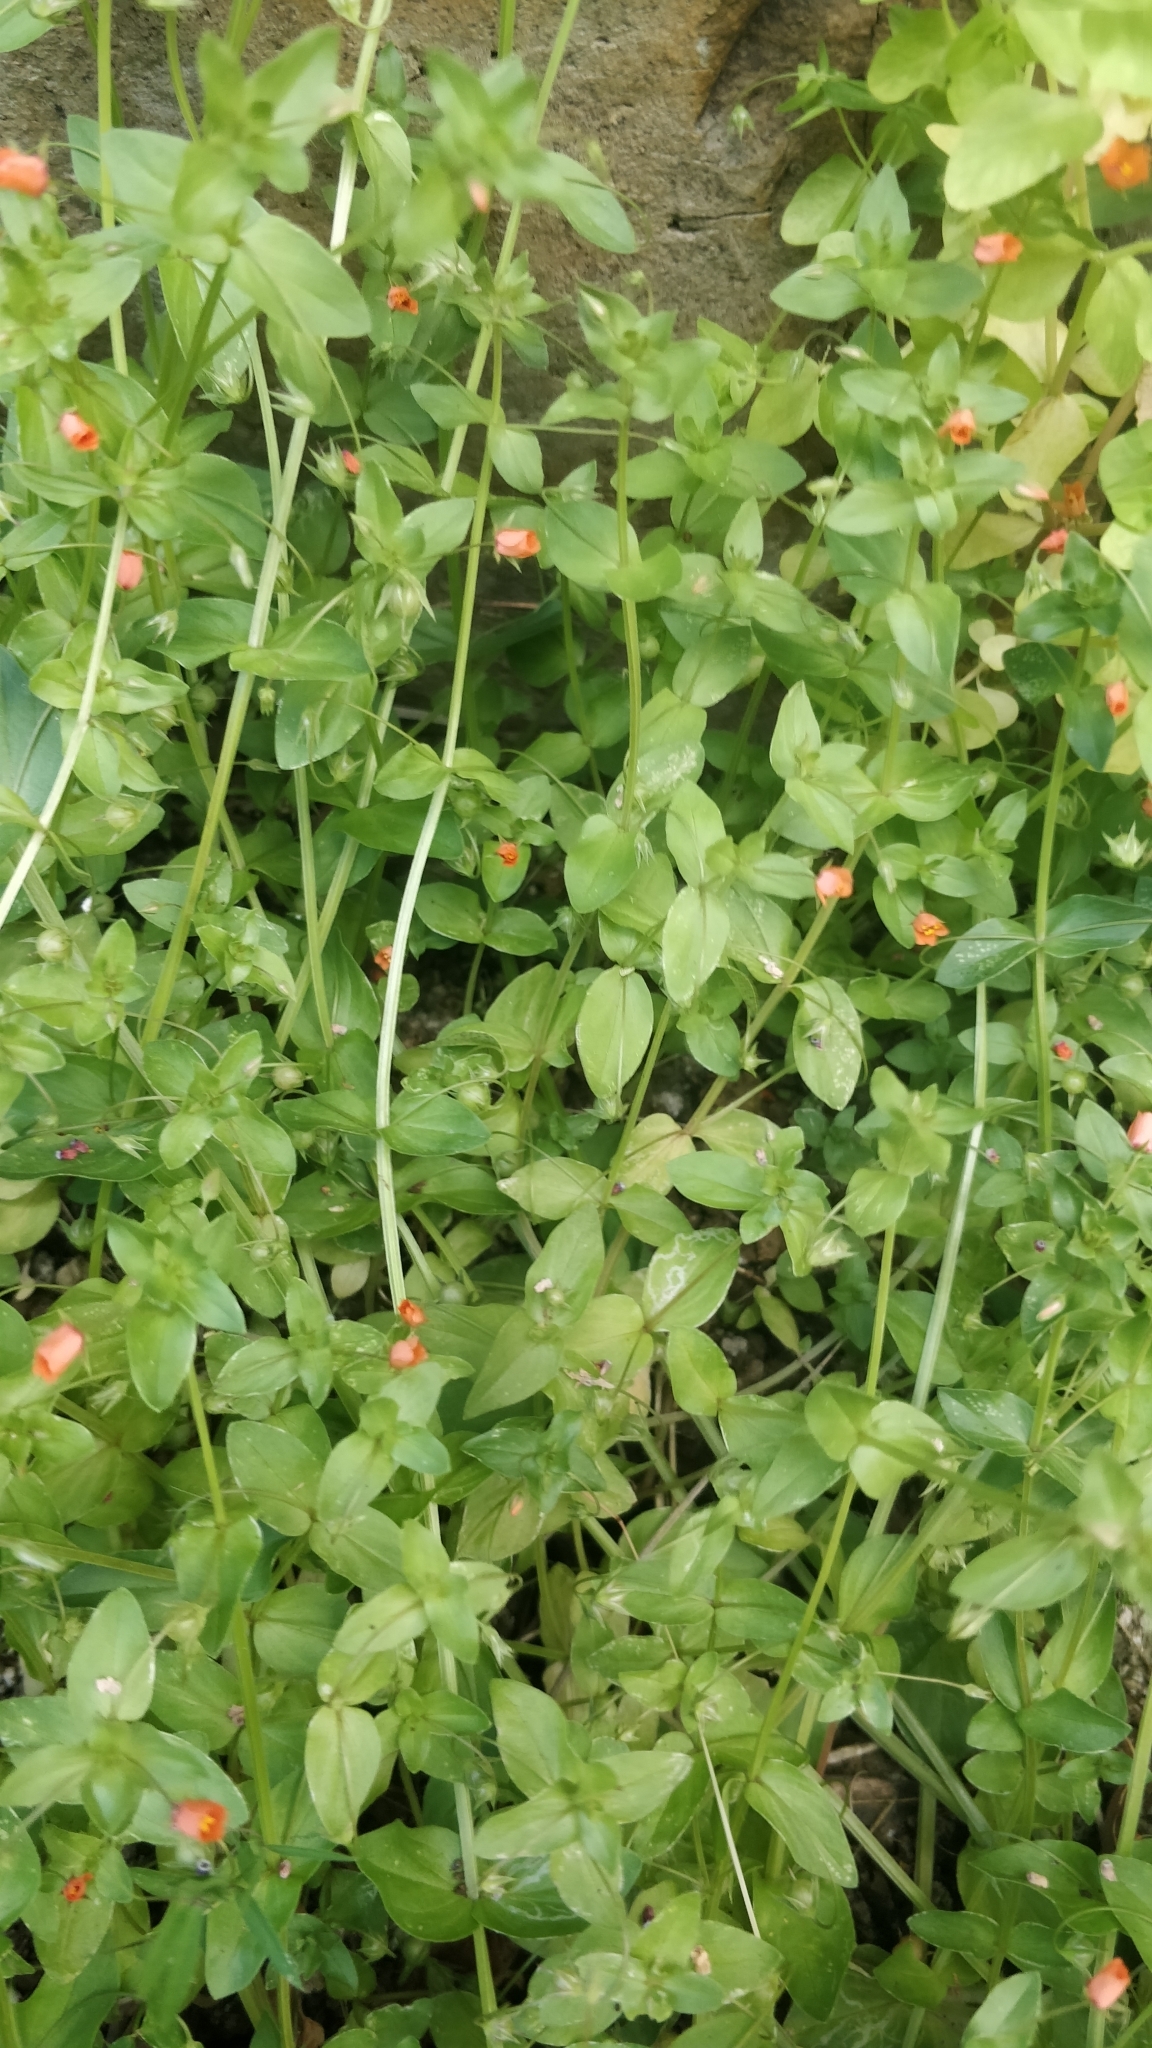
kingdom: Plantae
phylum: Tracheophyta
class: Magnoliopsida
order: Ericales
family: Primulaceae
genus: Lysimachia
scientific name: Lysimachia arvensis
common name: Scarlet pimpernel
